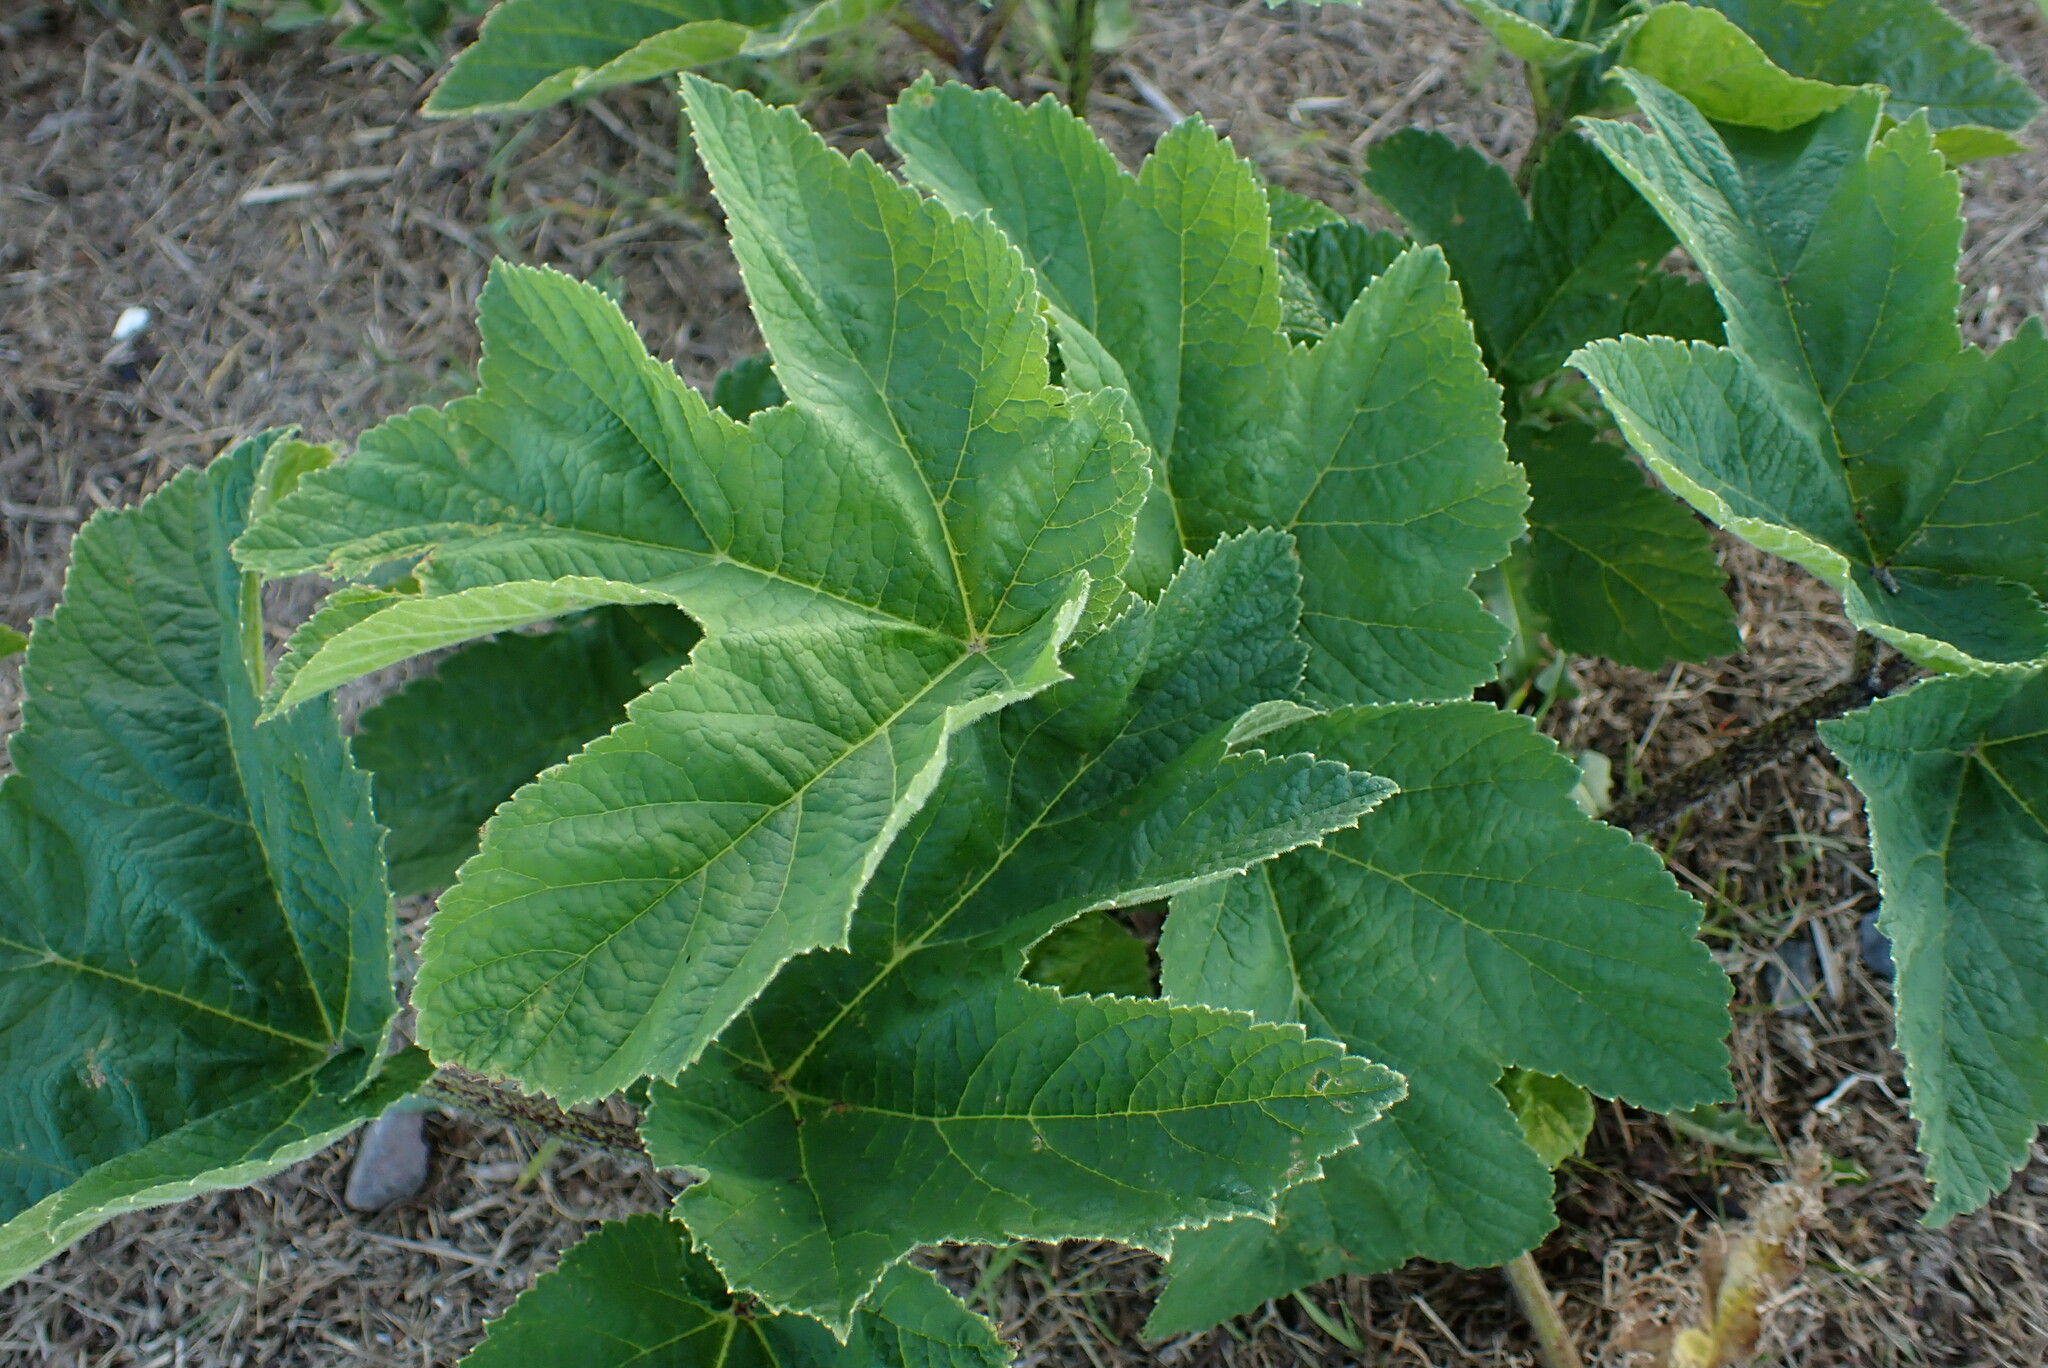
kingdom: Plantae
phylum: Tracheophyta
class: Magnoliopsida
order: Apiales
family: Apiaceae
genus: Heracleum
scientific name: Heracleum maximum
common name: American cow parsnip
